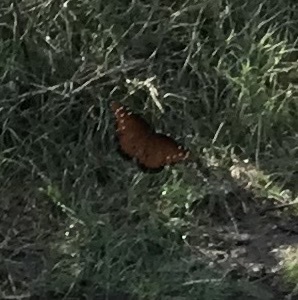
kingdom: Animalia
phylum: Arthropoda
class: Insecta
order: Lepidoptera
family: Nymphalidae
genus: Danaus
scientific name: Danaus gilippus
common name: Queen
